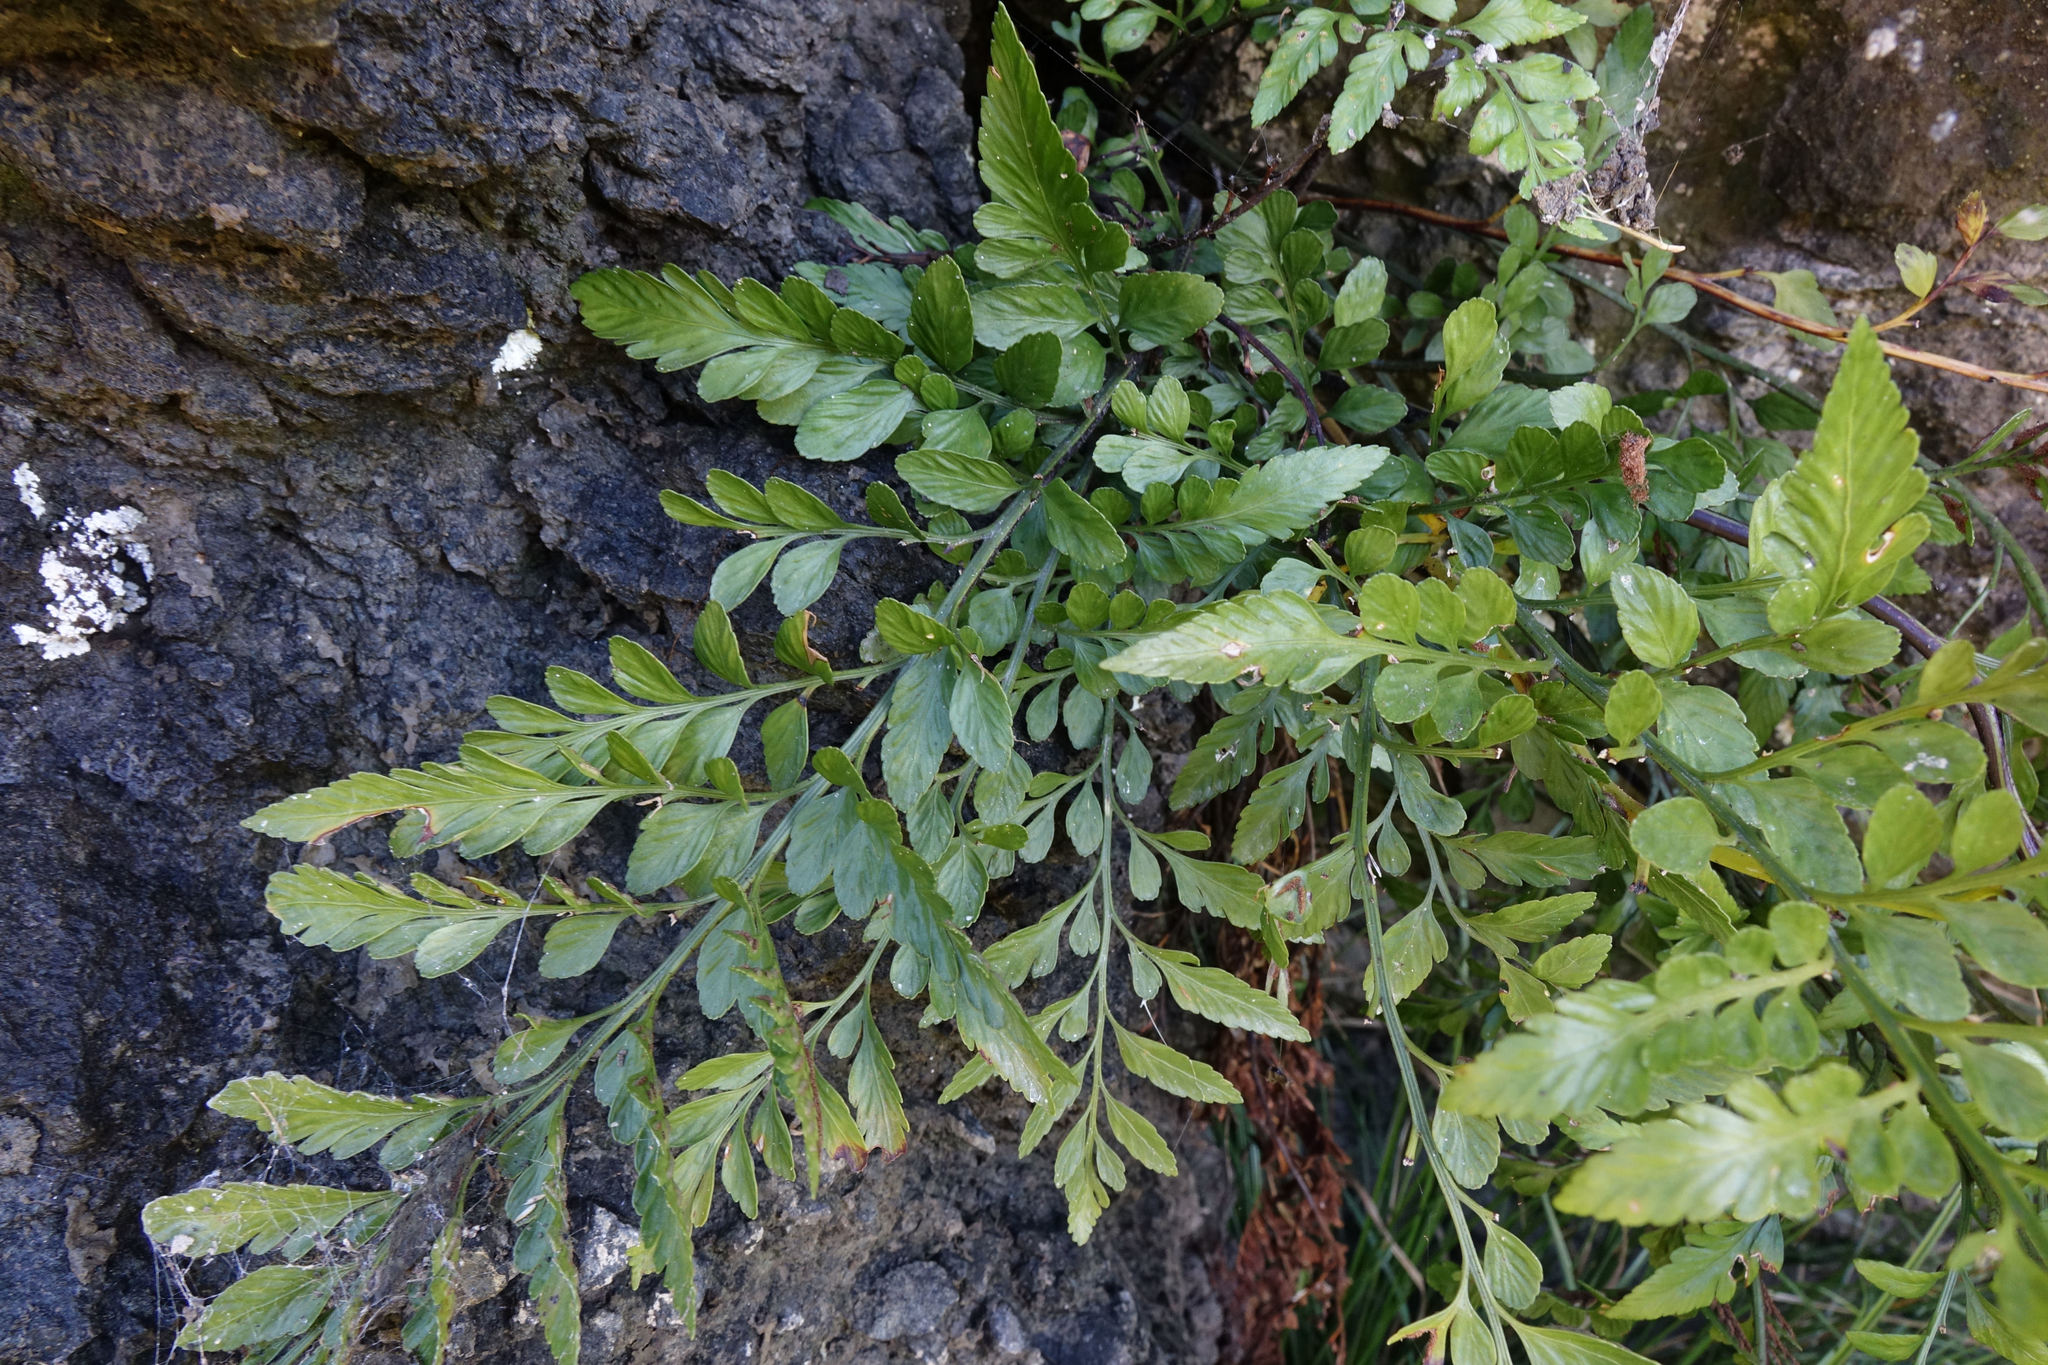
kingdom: Plantae
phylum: Tracheophyta
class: Polypodiopsida
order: Polypodiales
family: Aspleniaceae
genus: Asplenium
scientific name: Asplenium lyallii
